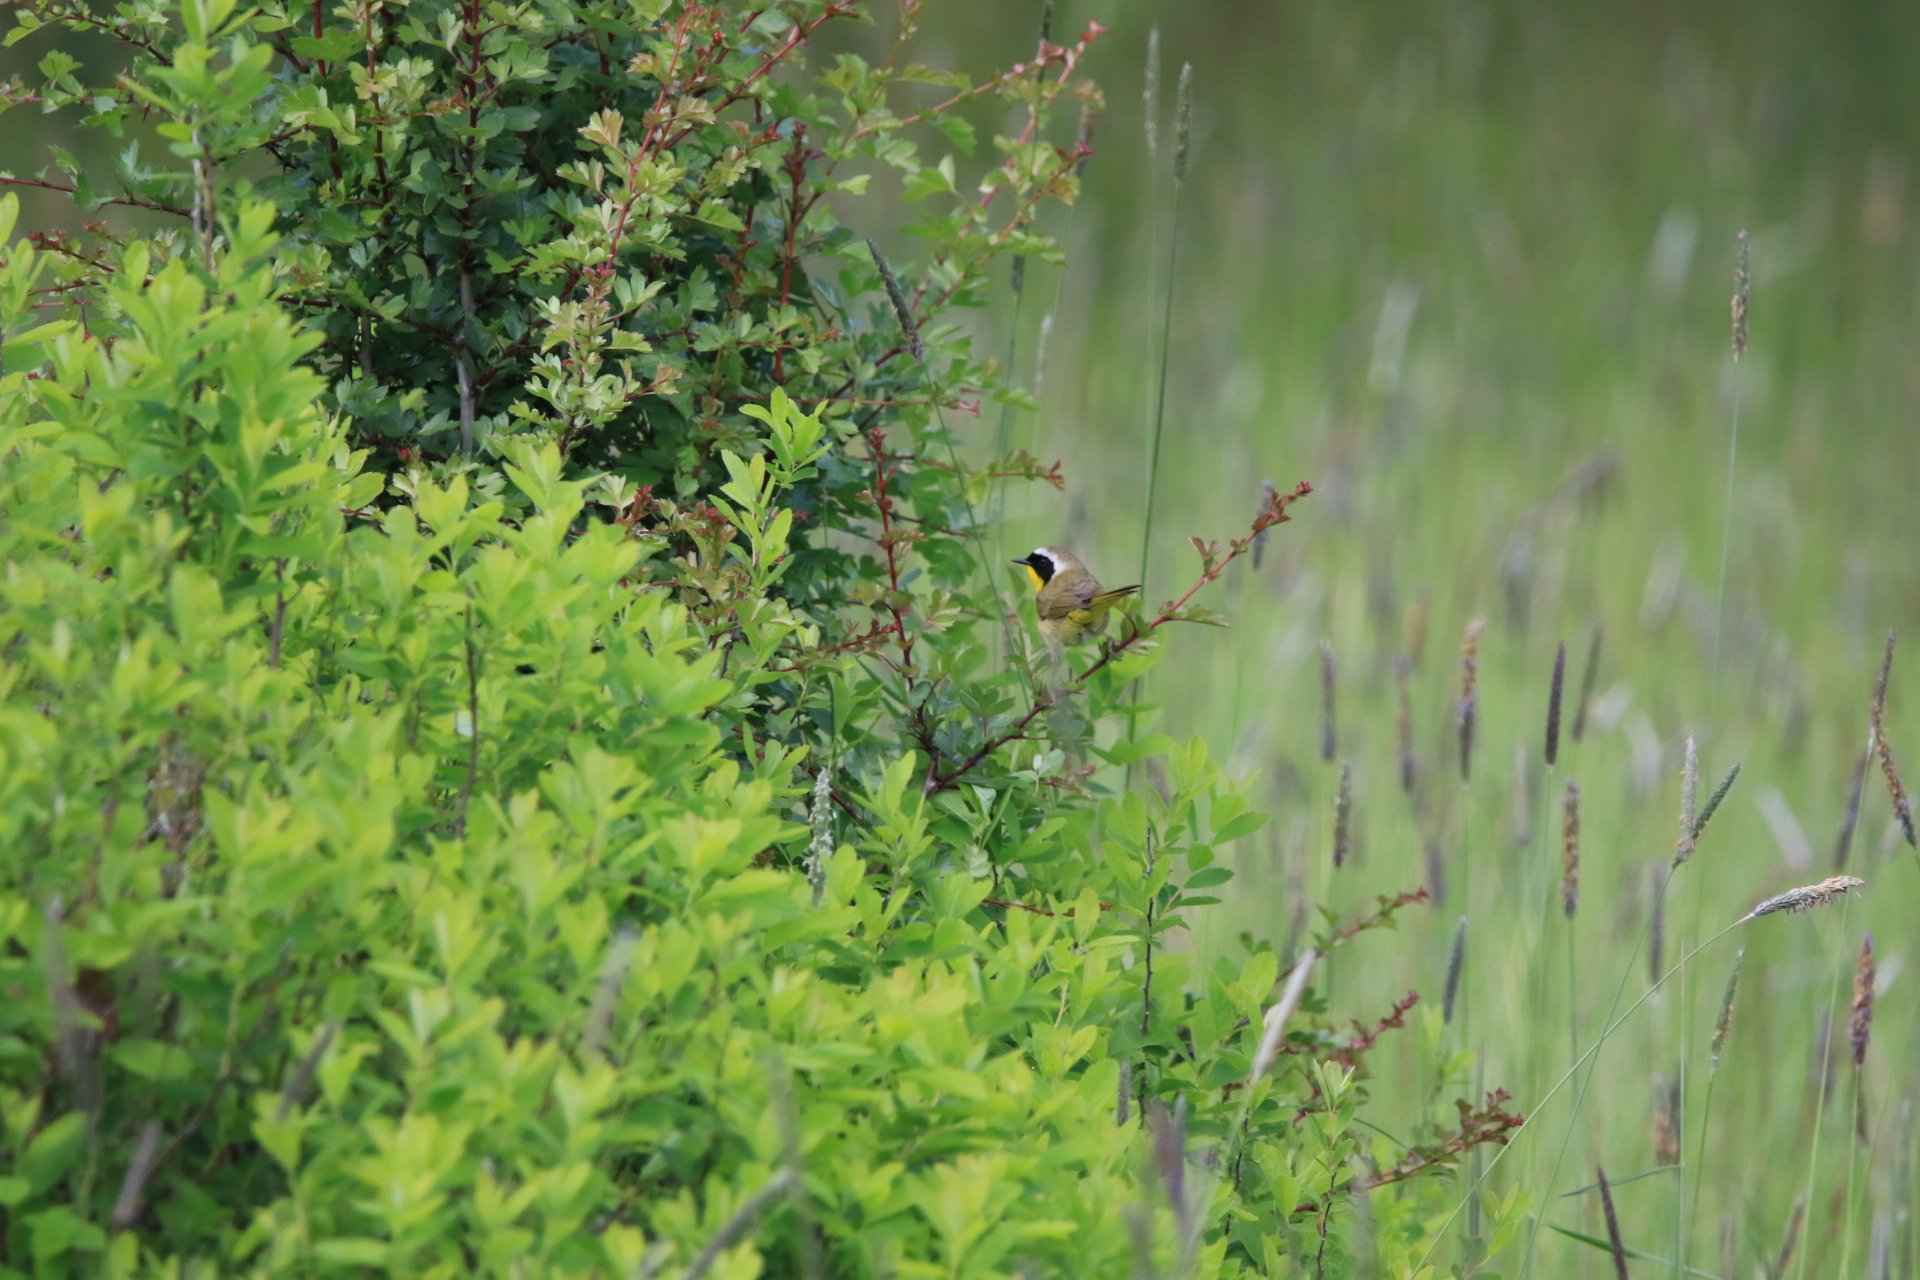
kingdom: Animalia
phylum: Chordata
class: Aves
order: Passeriformes
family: Parulidae
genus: Geothlypis
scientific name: Geothlypis trichas
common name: Common yellowthroat
